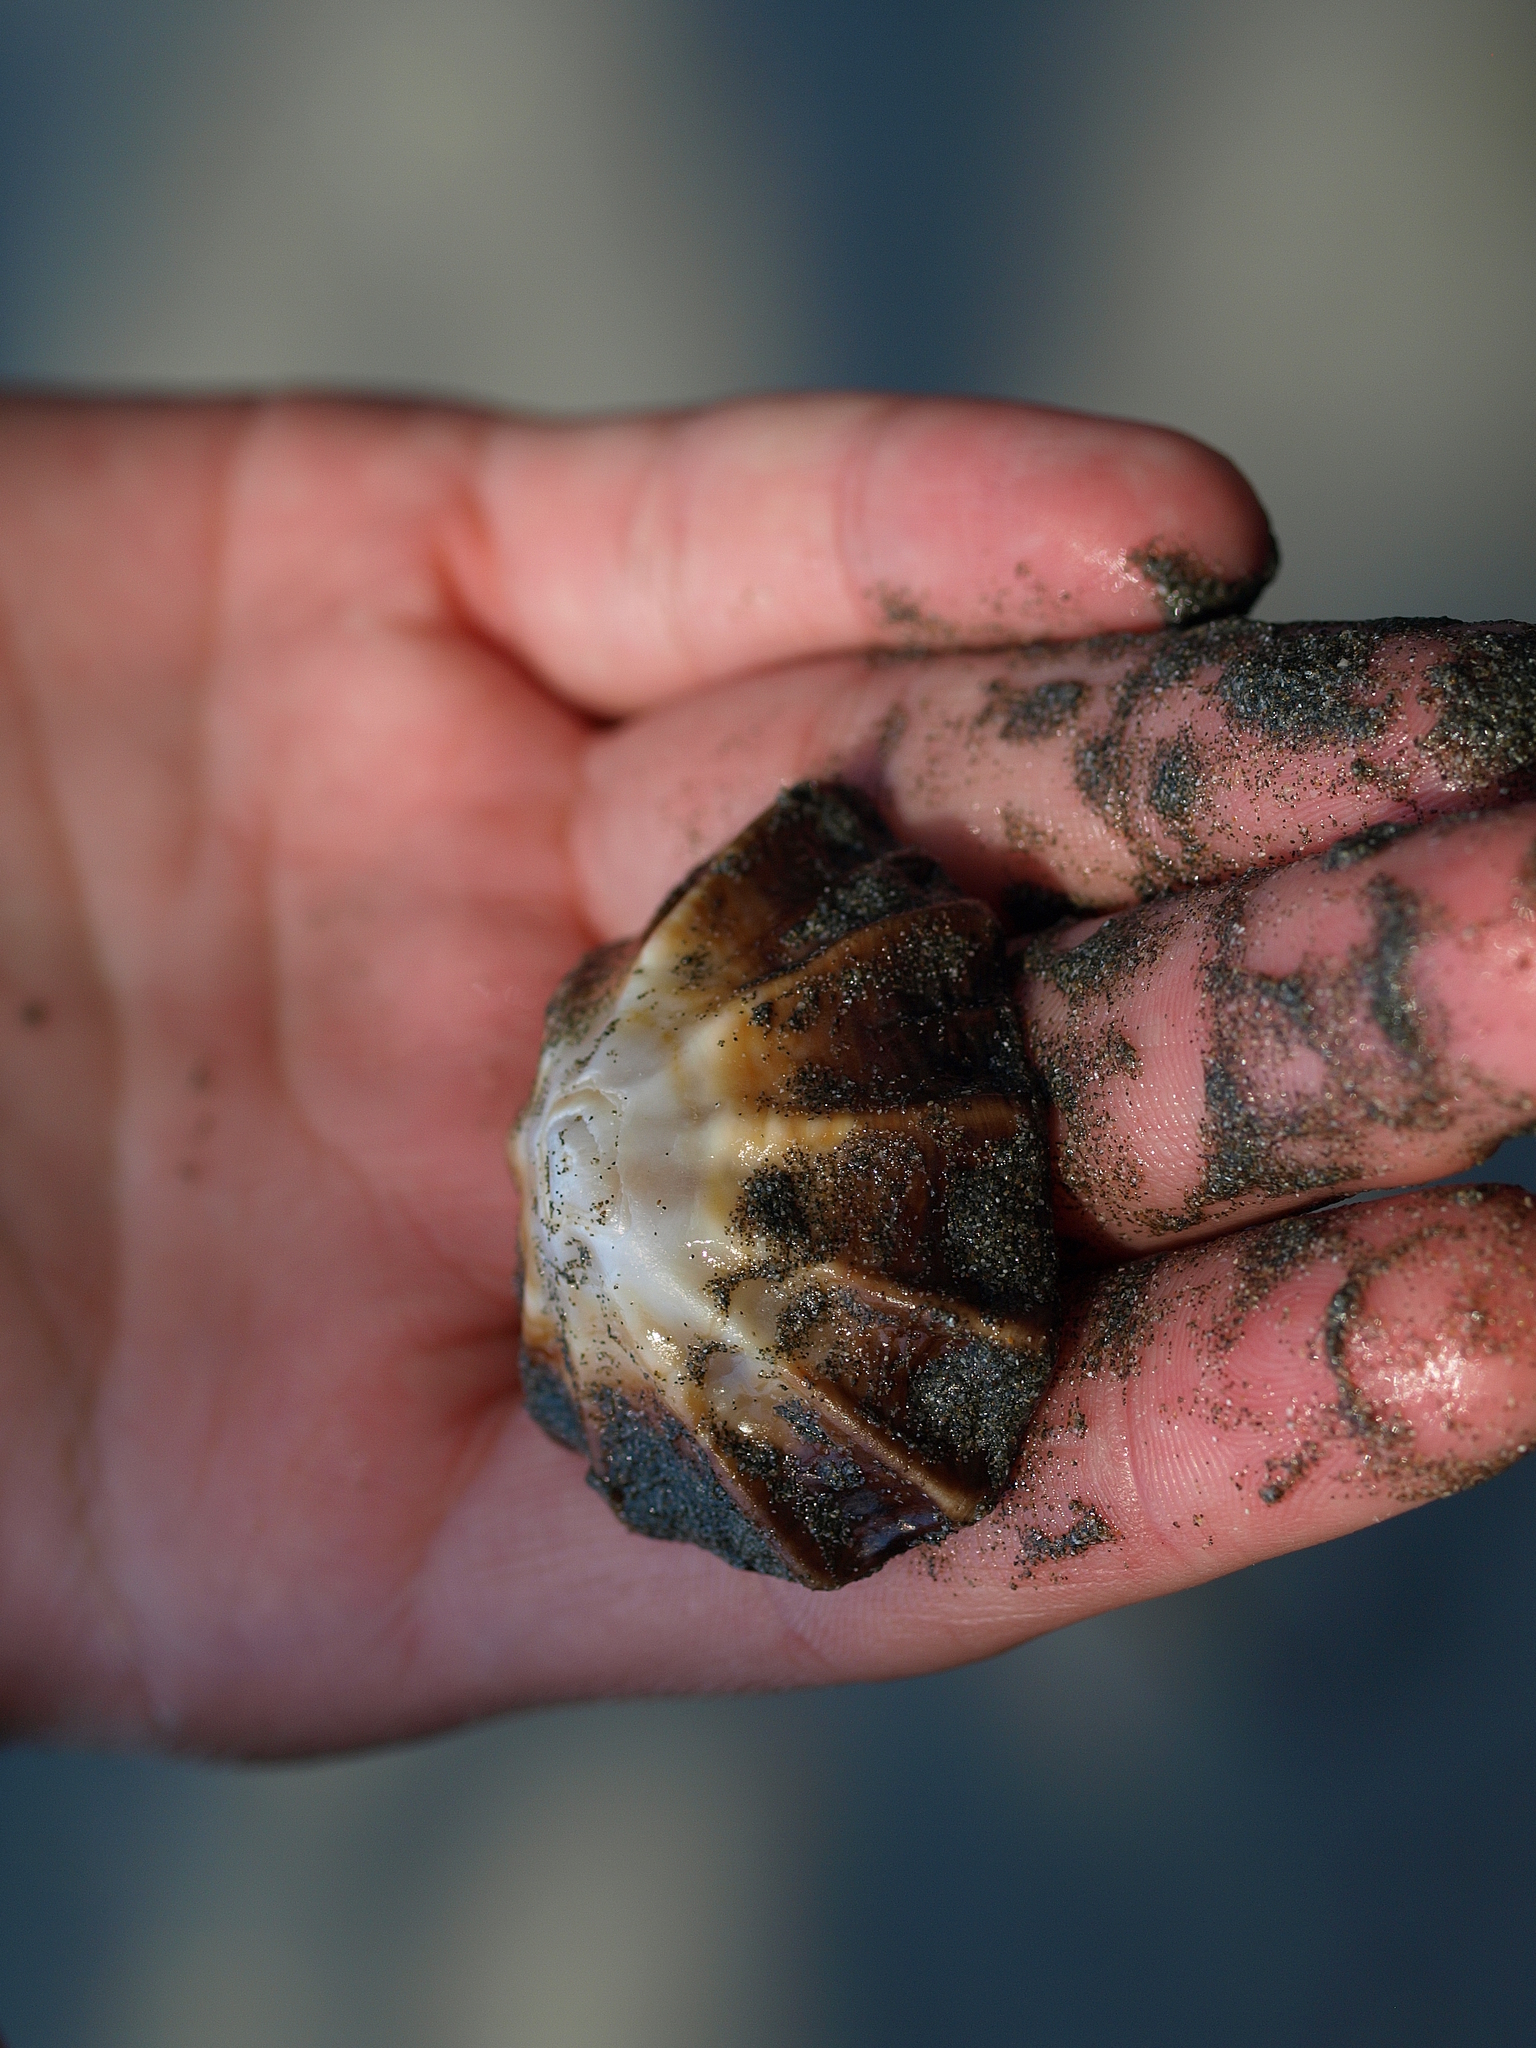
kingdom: Animalia
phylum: Mollusca
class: Gastropoda
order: Siphonariida
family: Siphonariidae
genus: Siphonaria
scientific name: Siphonaria gigas
